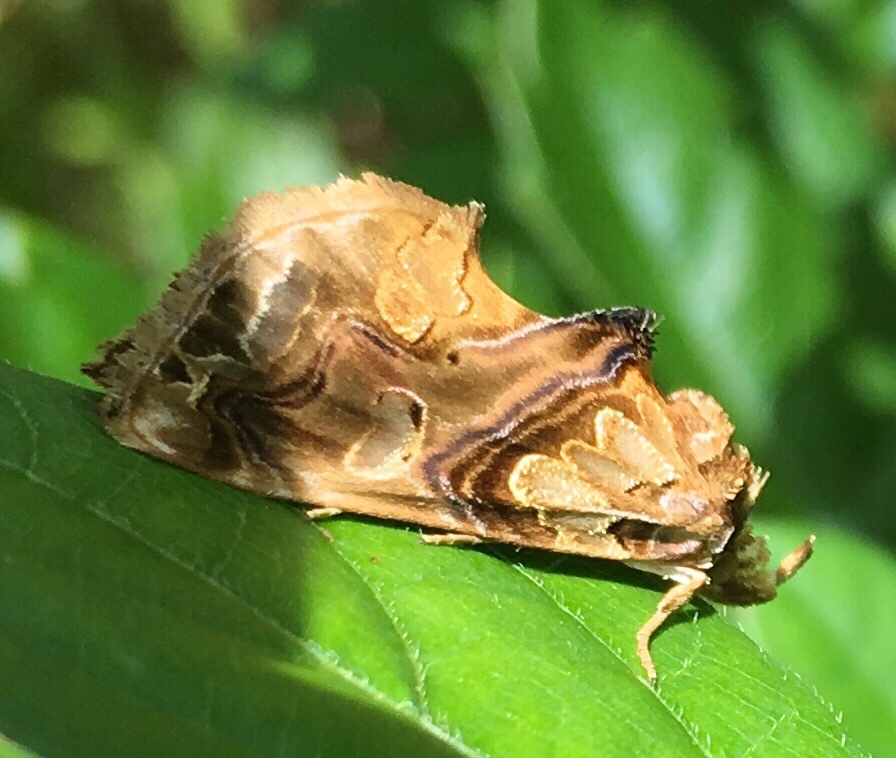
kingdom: Animalia
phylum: Arthropoda
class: Insecta
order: Lepidoptera
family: Erebidae
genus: Plusiodonta
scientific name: Plusiodonta compressipalpis
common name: Moonseed moth
